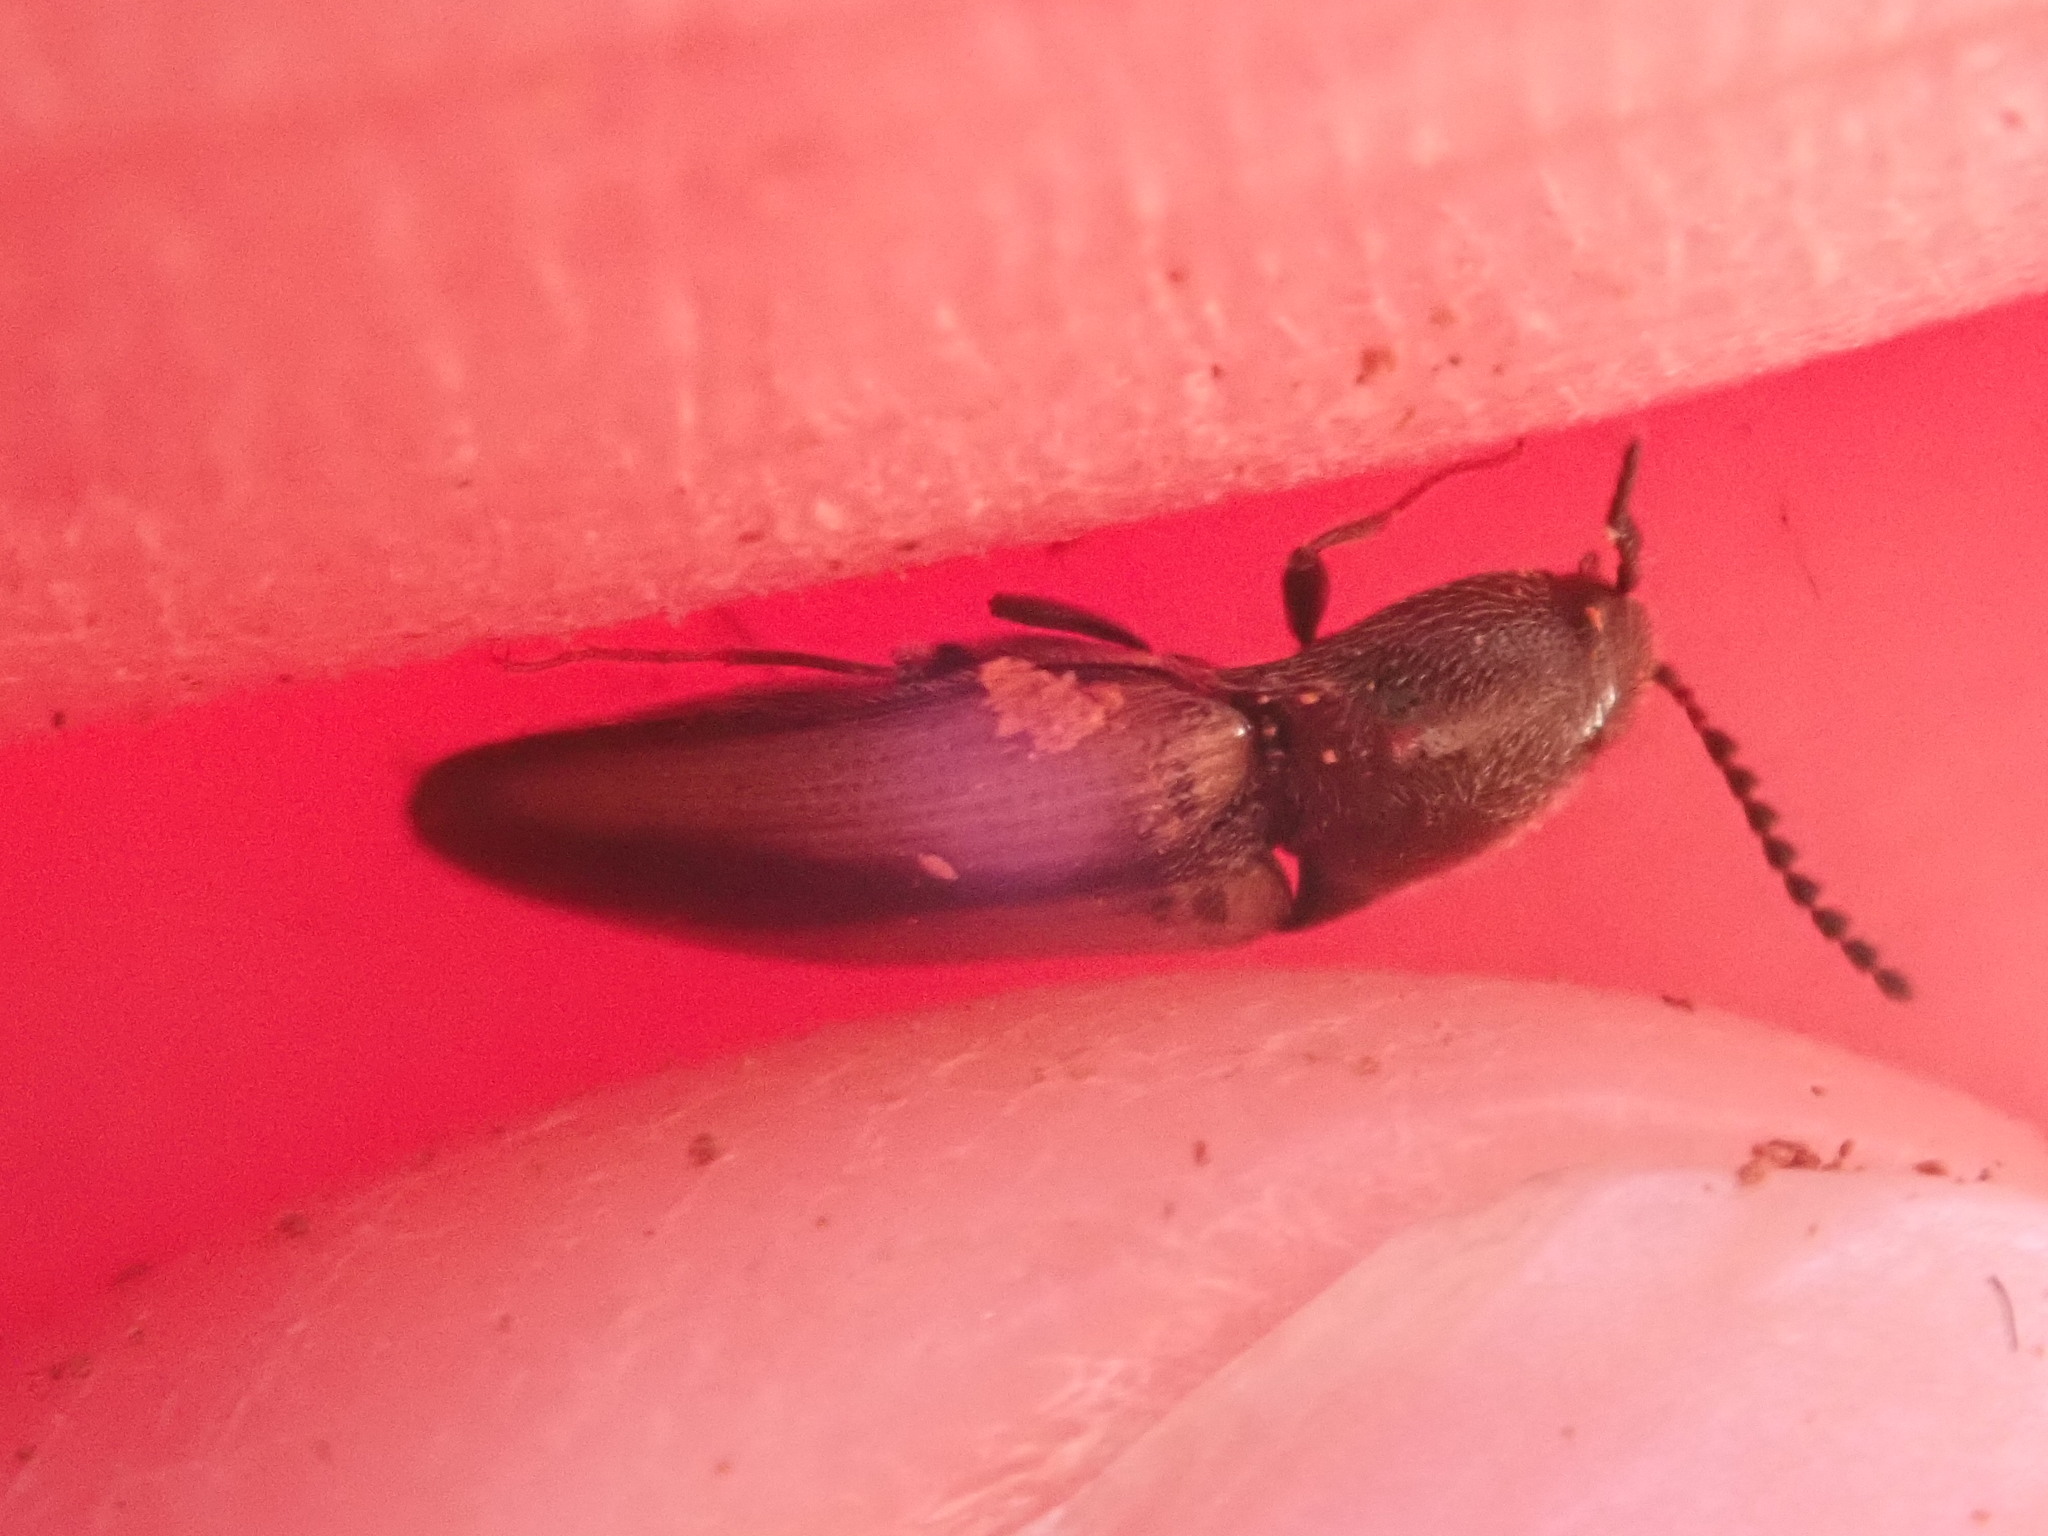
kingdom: Animalia
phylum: Arthropoda
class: Insecta
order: Coleoptera
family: Elateridae
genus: Ampedus
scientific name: Ampedus militaris
